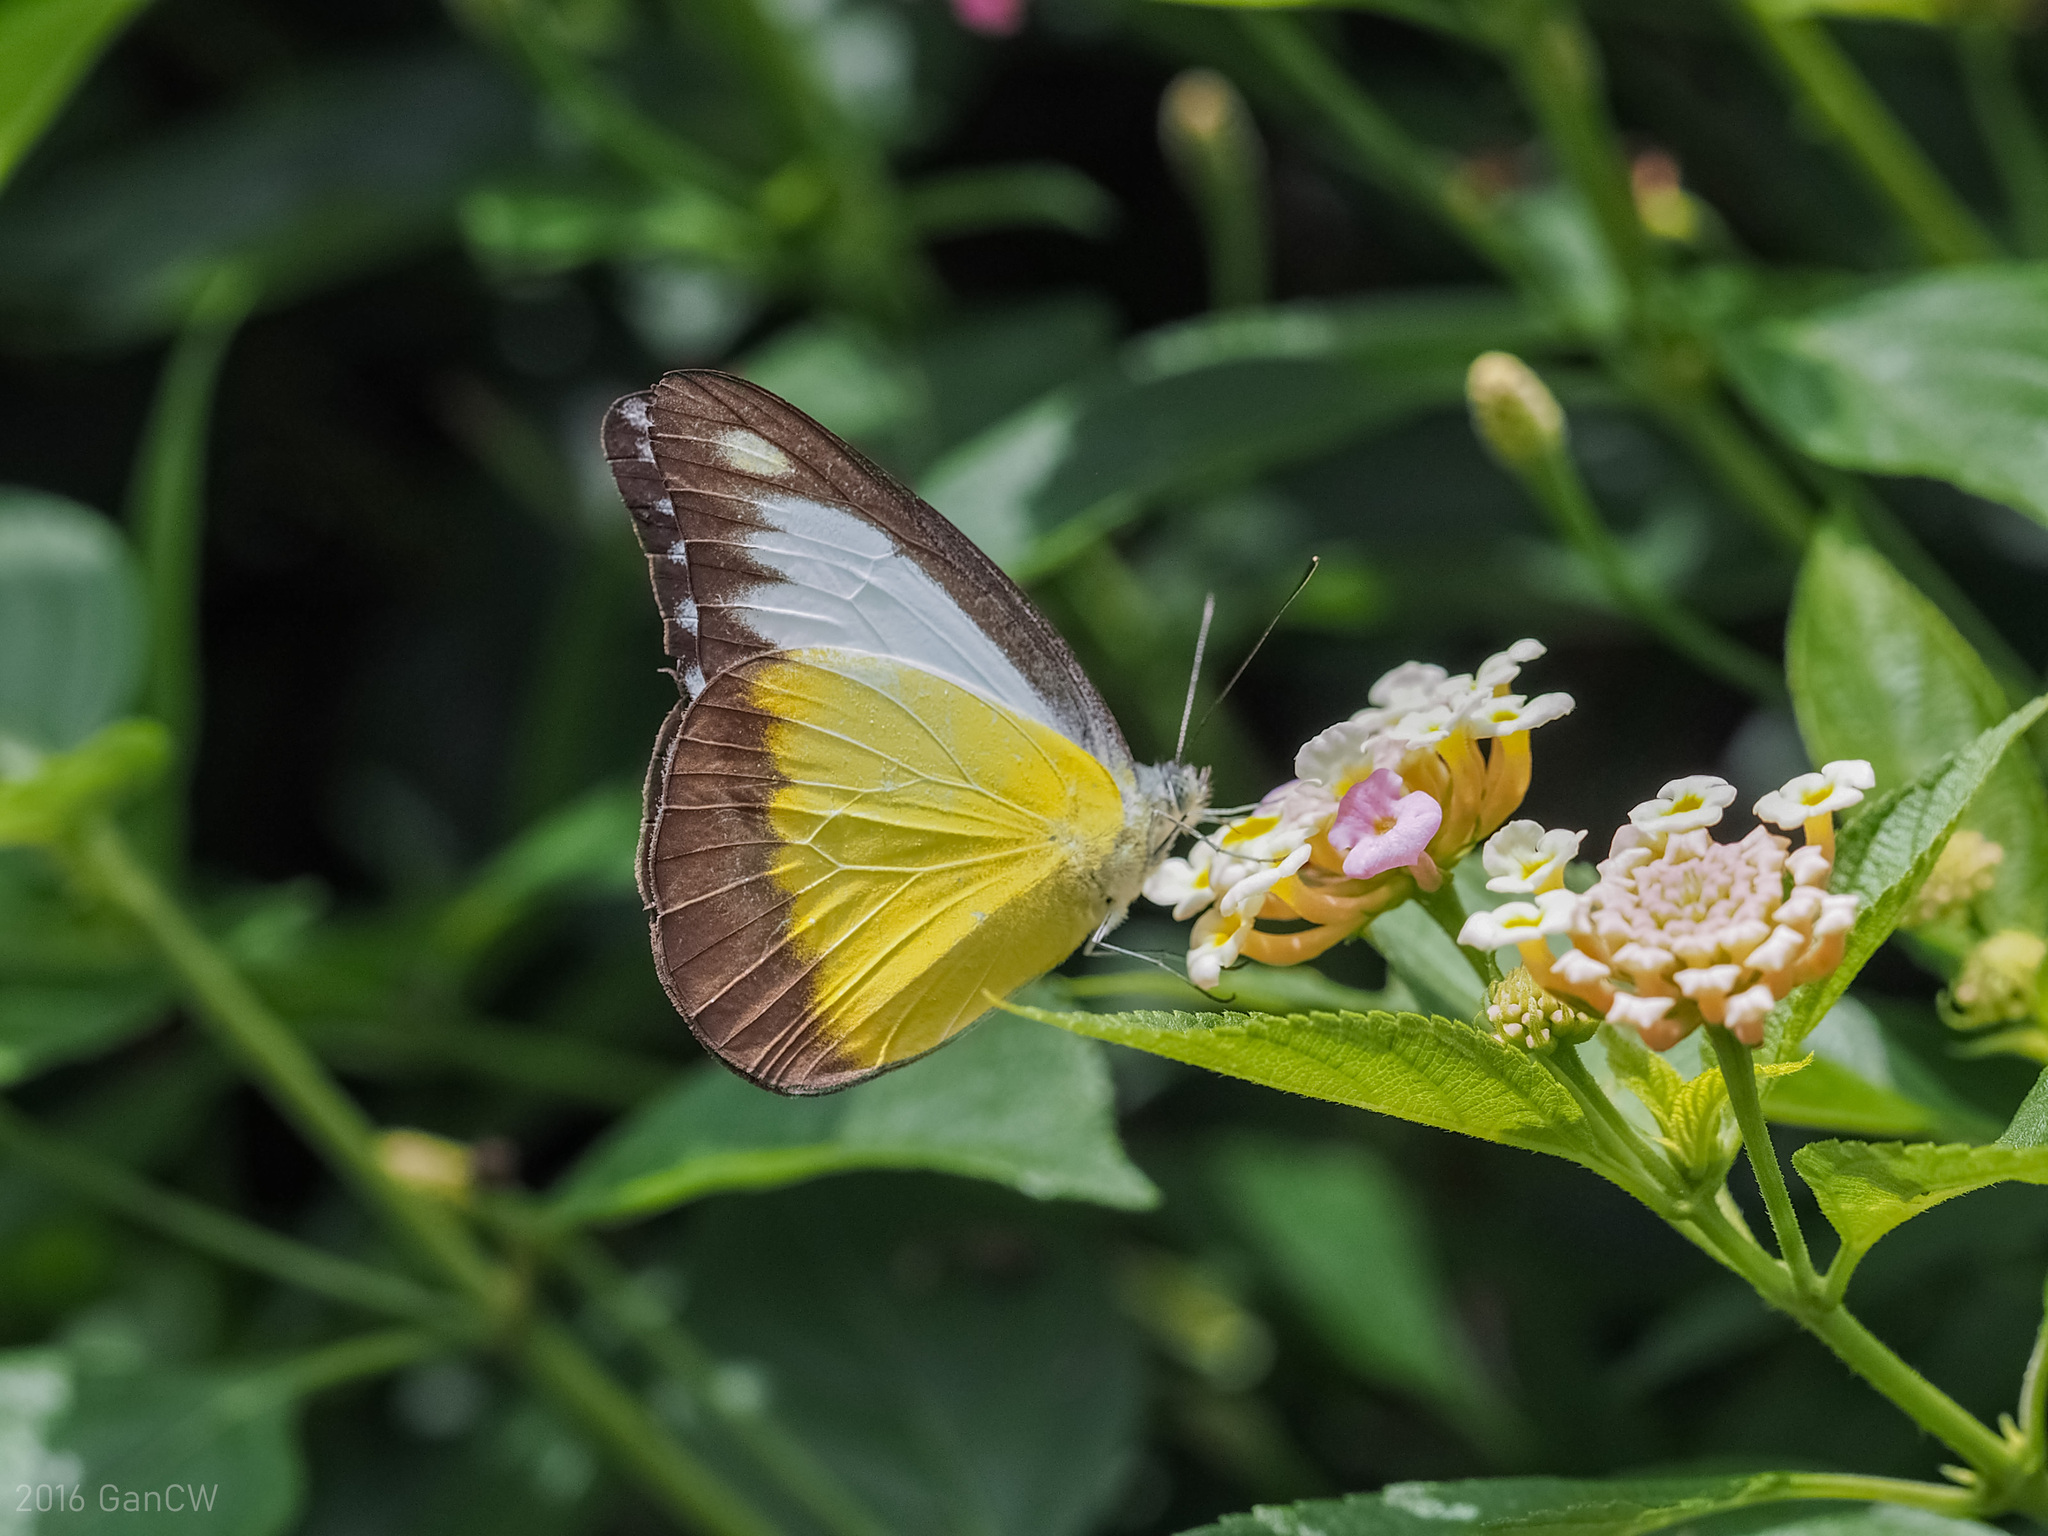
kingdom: Animalia
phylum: Arthropoda
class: Insecta
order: Lepidoptera
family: Pieridae
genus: Appias
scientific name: Appias lyncida
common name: Chocolate albatross
